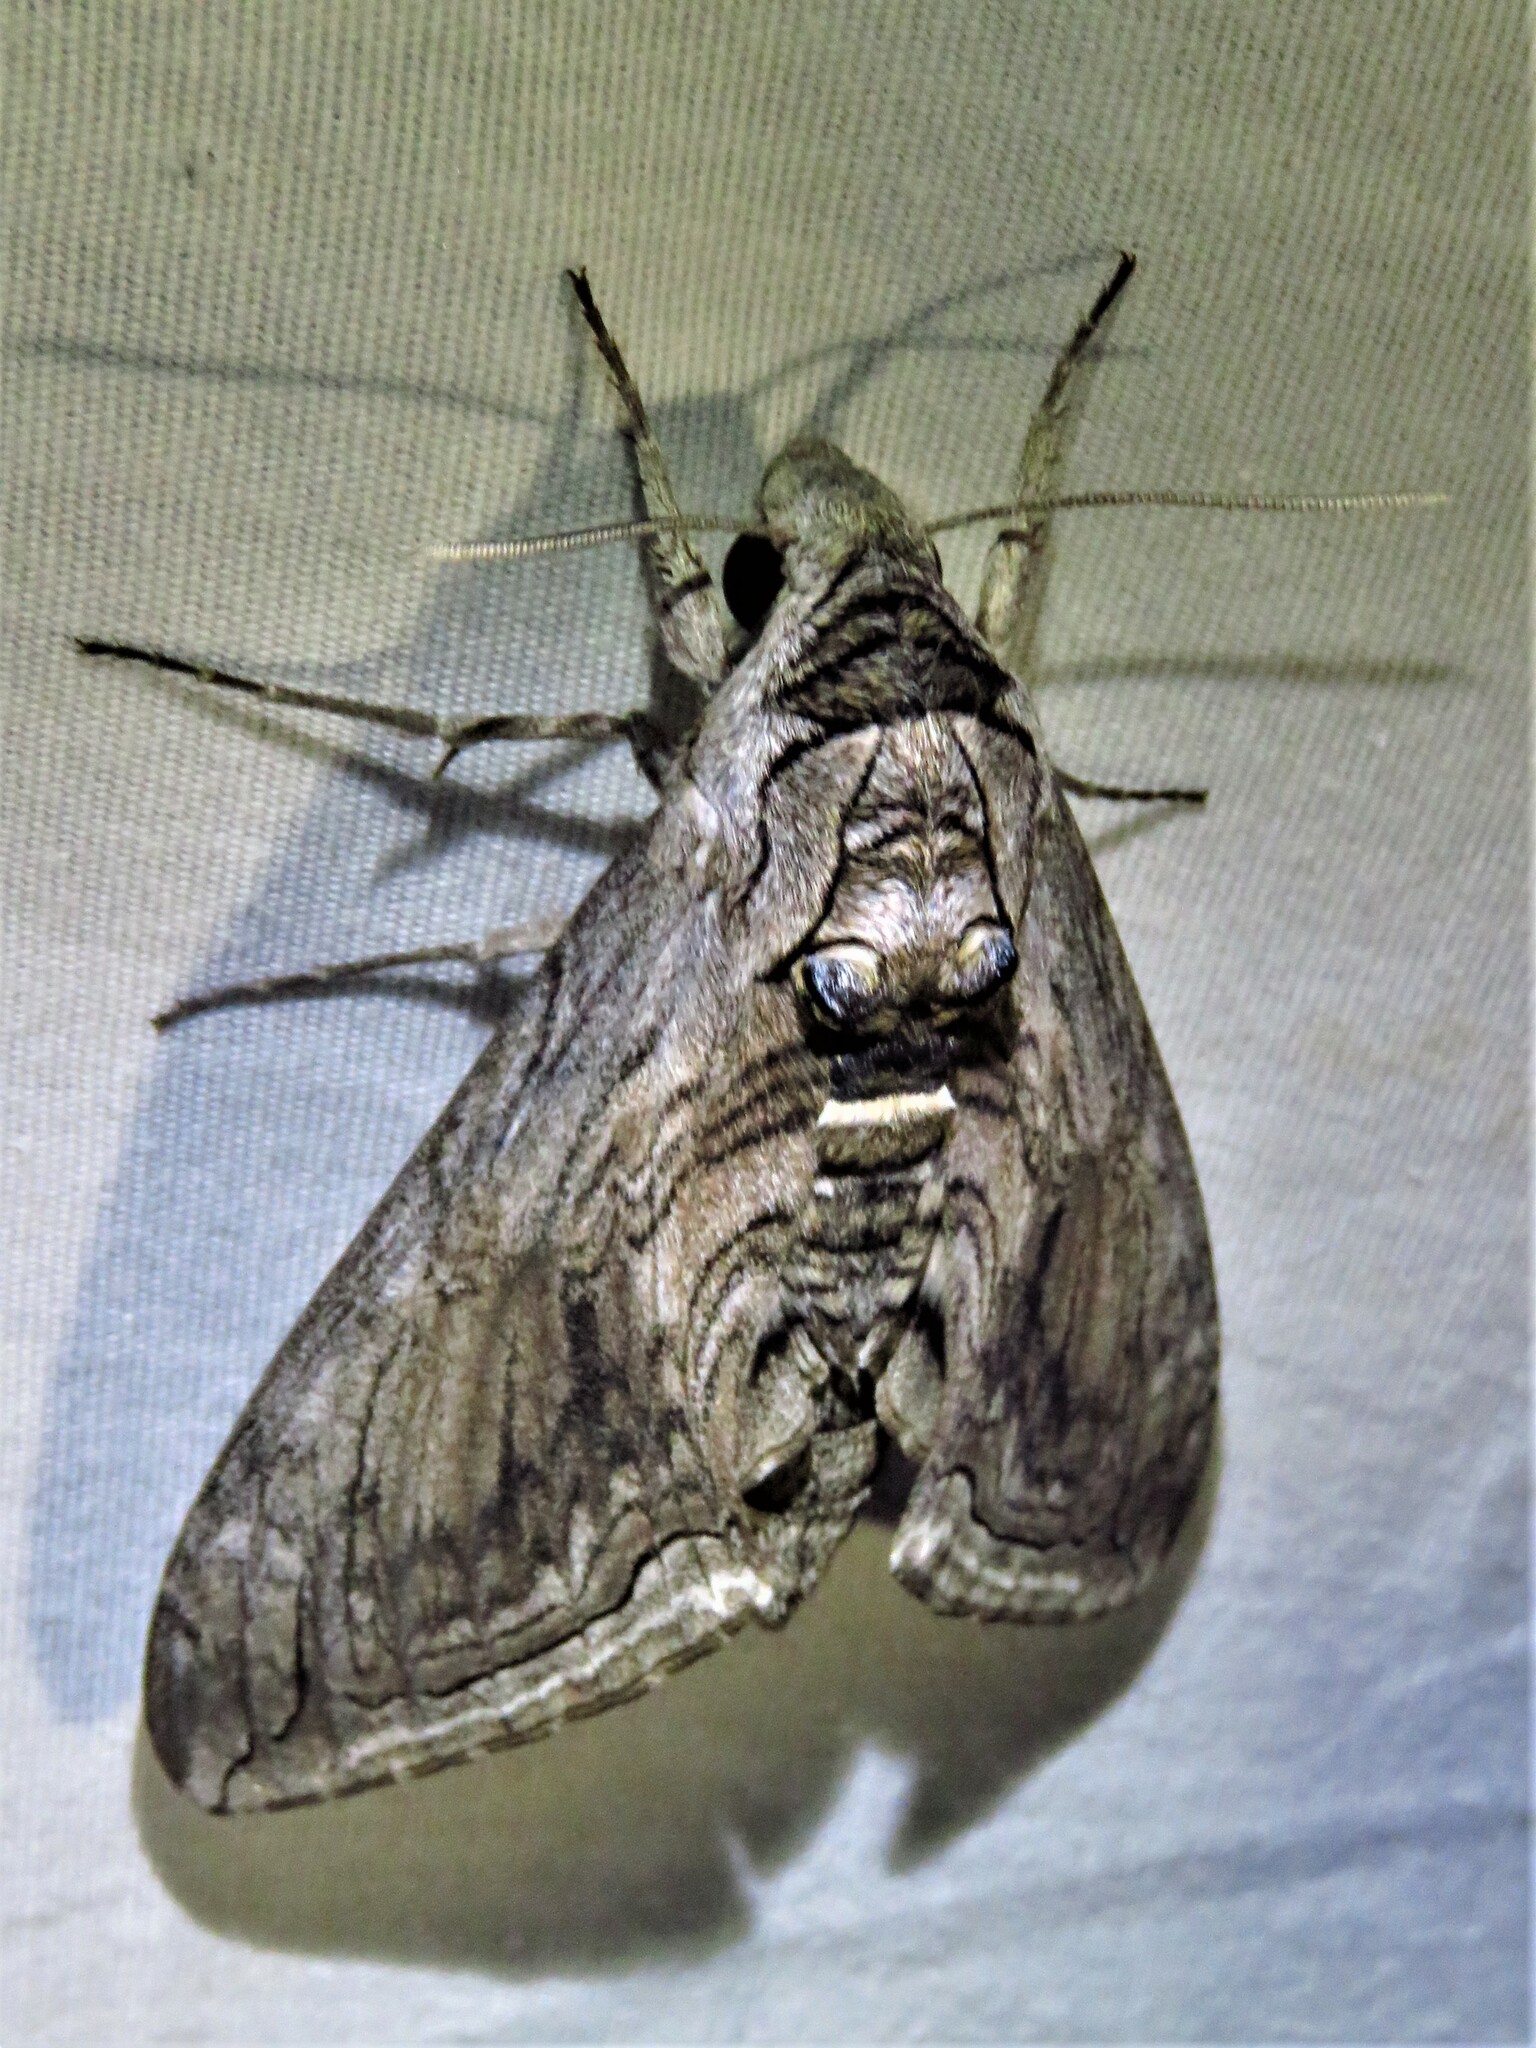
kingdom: Animalia
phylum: Arthropoda
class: Insecta
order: Lepidoptera
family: Sphingidae
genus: Manduca
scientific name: Manduca quinquemaculatus
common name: Five-spotted hawk-moth
